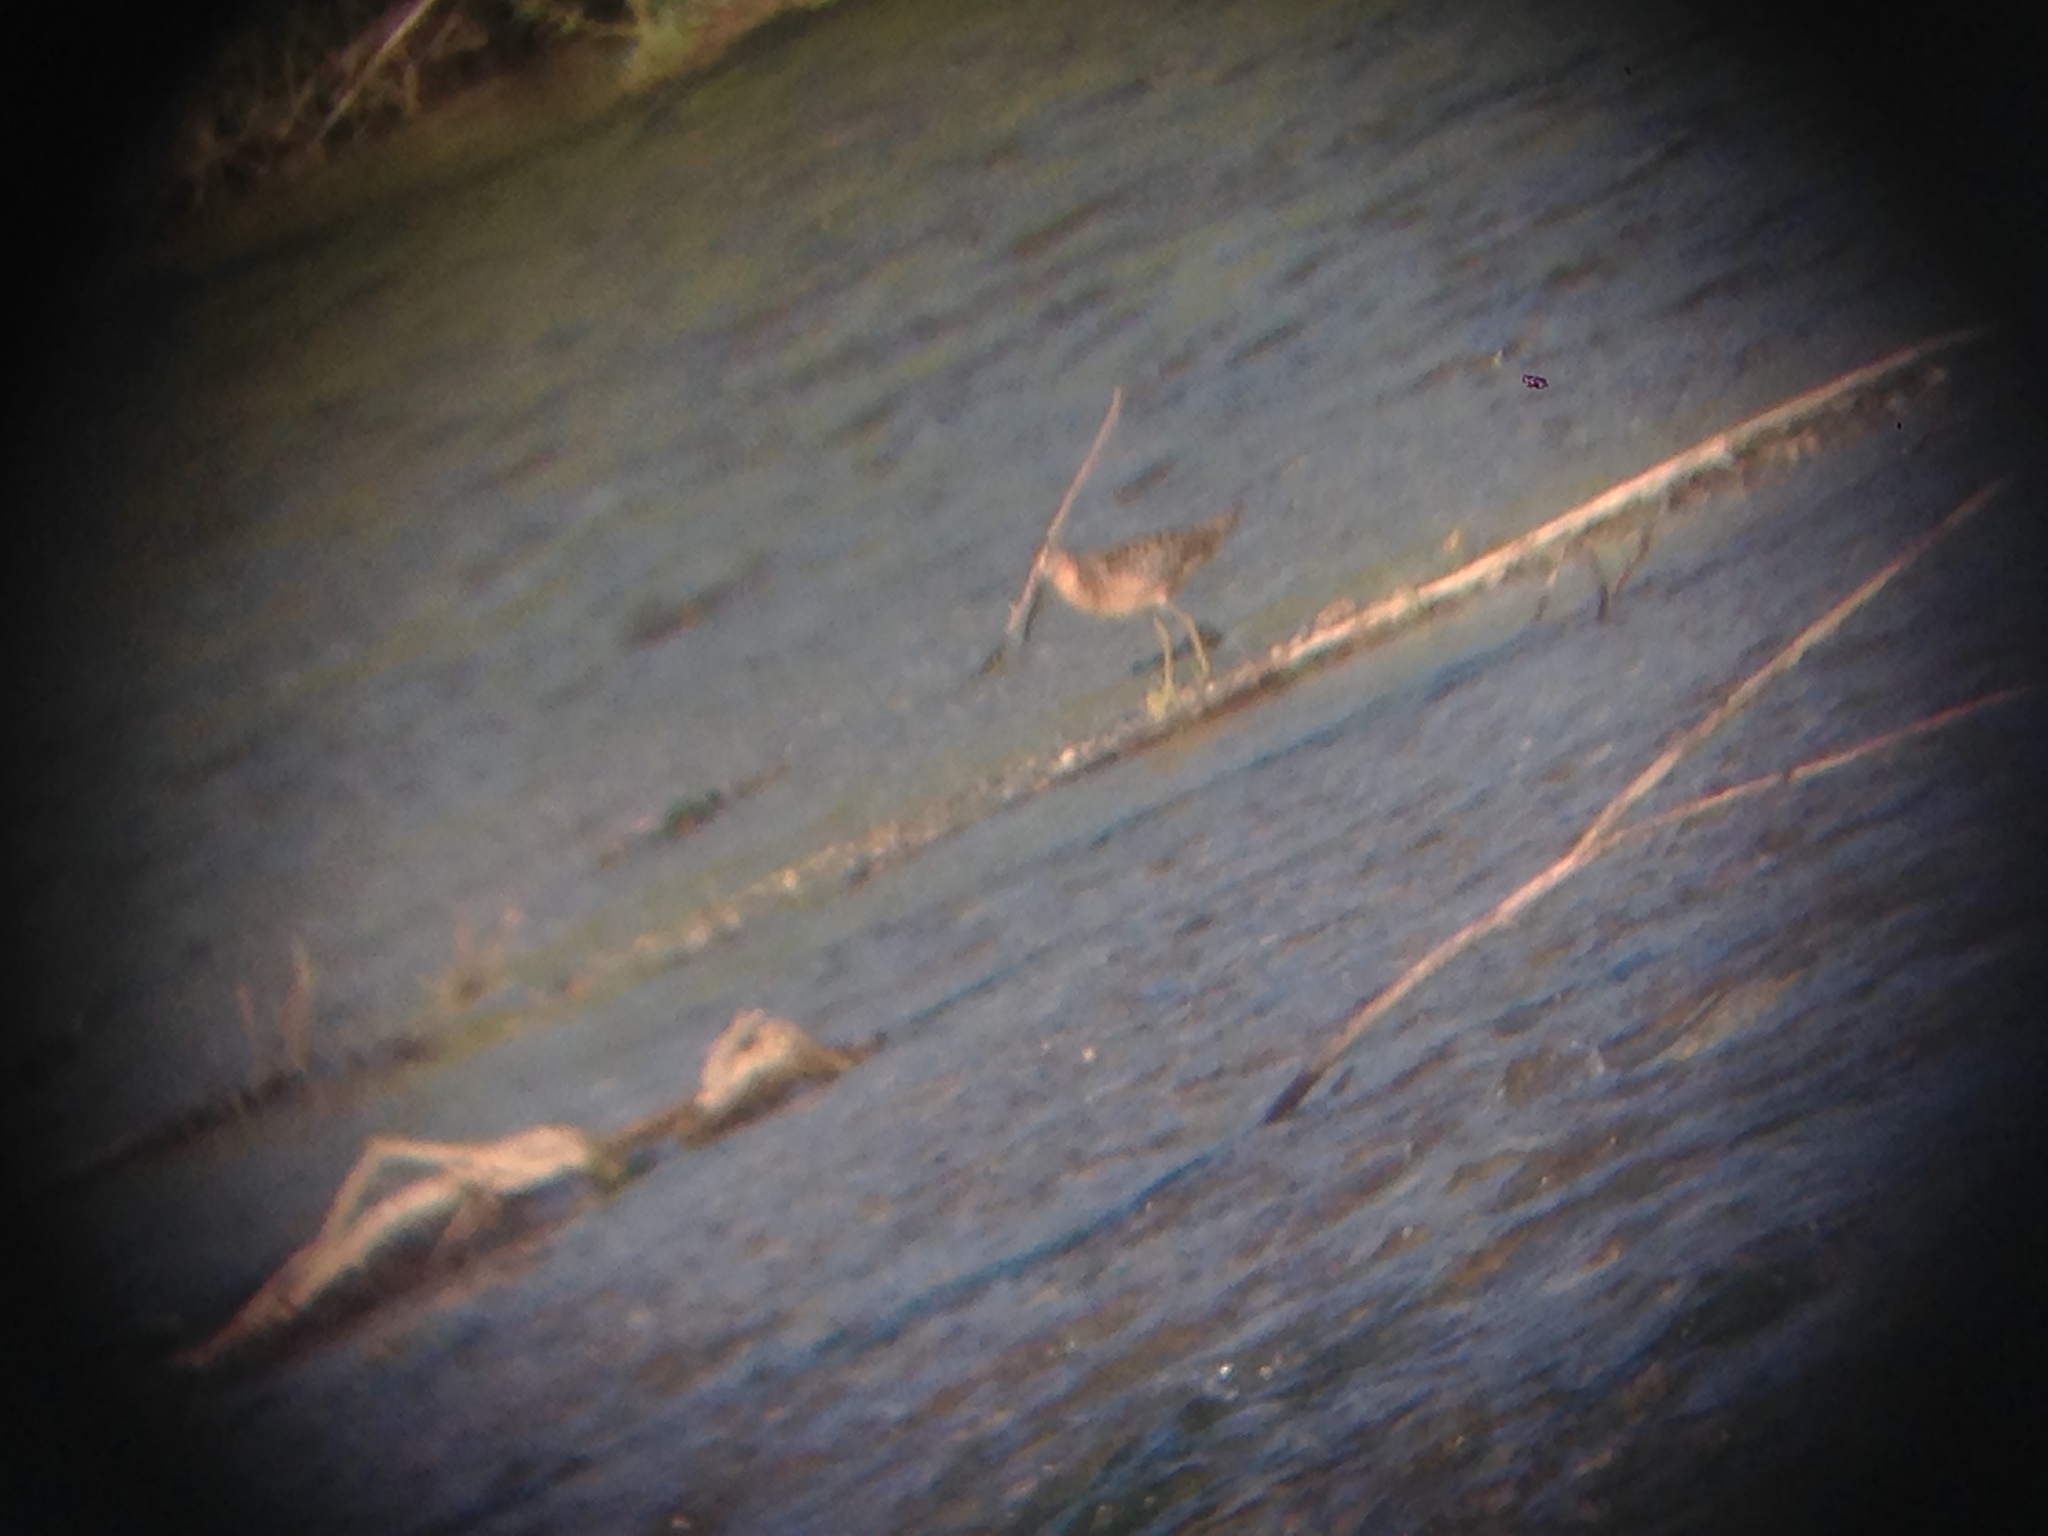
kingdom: Animalia
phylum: Chordata
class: Aves
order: Charadriiformes
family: Scolopacidae
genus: Limnodromus
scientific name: Limnodromus scolopaceus
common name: Long-billed dowitcher
